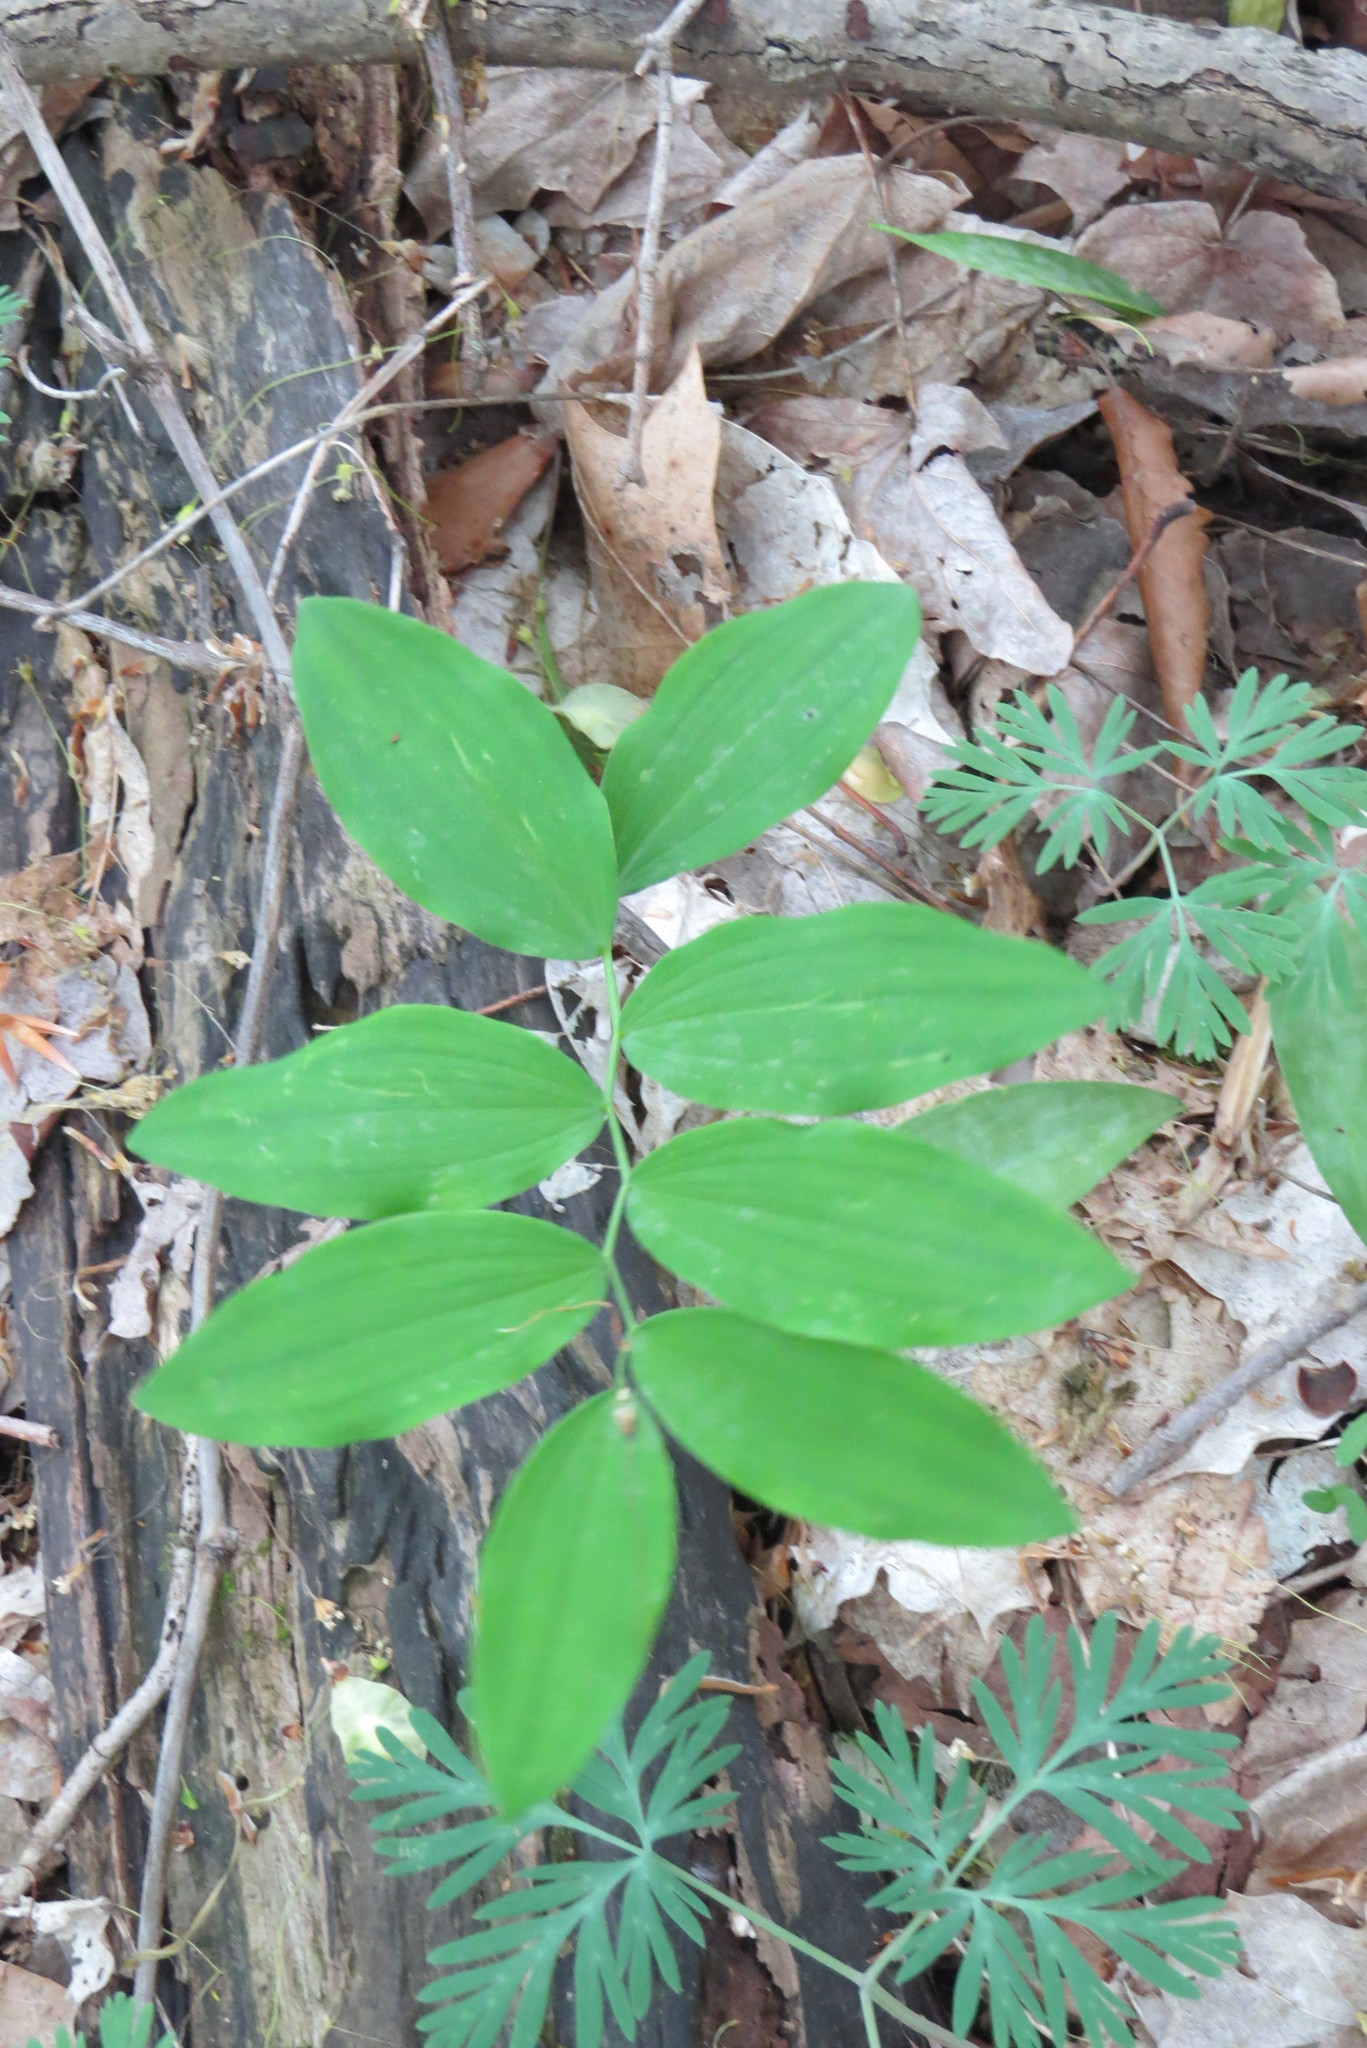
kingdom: Plantae
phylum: Tracheophyta
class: Liliopsida
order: Asparagales
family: Asparagaceae
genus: Polygonatum
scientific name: Polygonatum pubescens
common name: Downy solomon's seal
